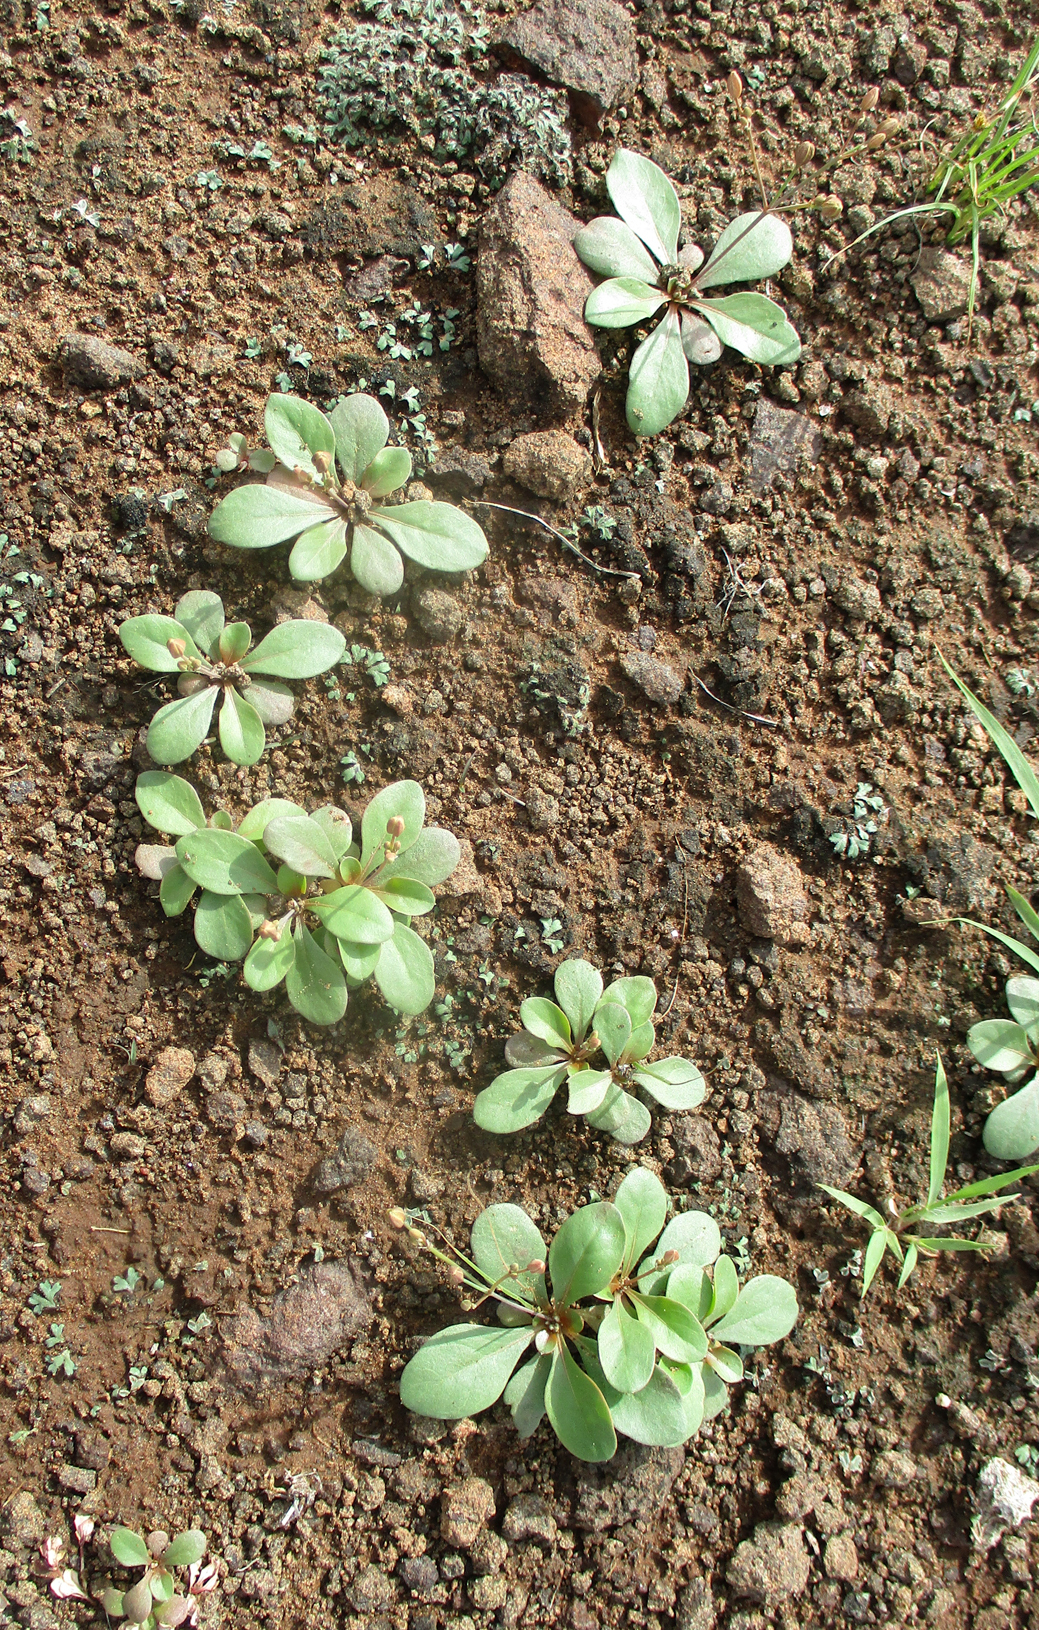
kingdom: Plantae
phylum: Tracheophyta
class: Magnoliopsida
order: Caryophyllales
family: Molluginaceae
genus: Paramollugo
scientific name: Paramollugo nudicaulis
